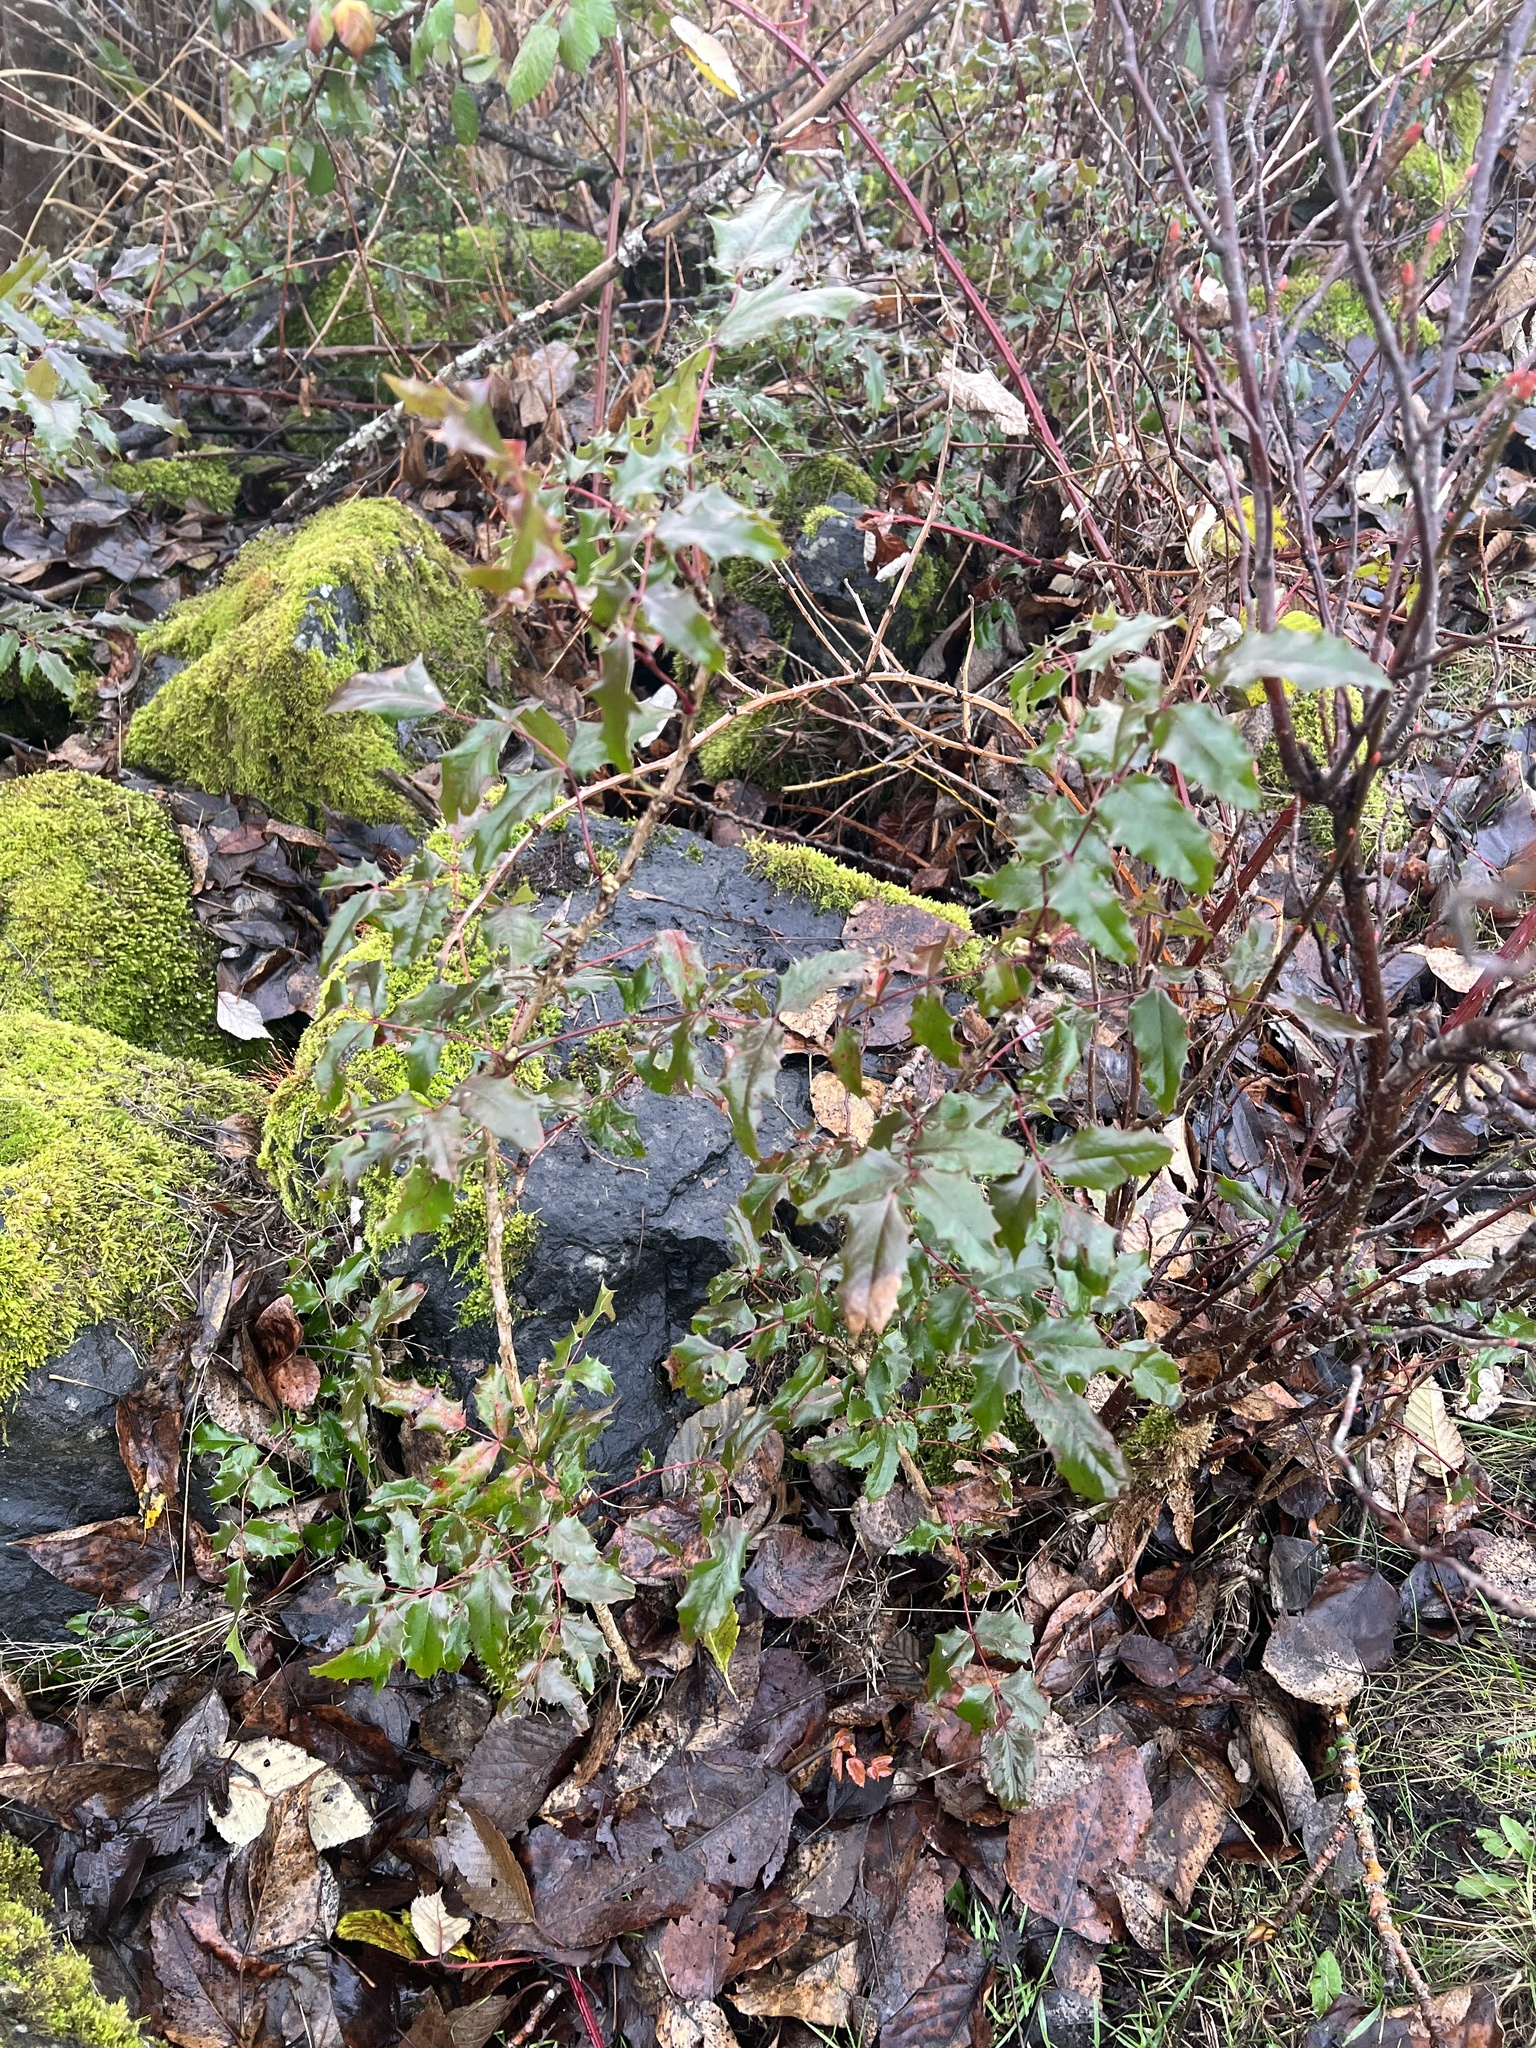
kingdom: Plantae
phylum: Tracheophyta
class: Magnoliopsida
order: Ranunculales
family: Berberidaceae
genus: Mahonia
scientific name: Mahonia aquifolium
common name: Oregon-grape
